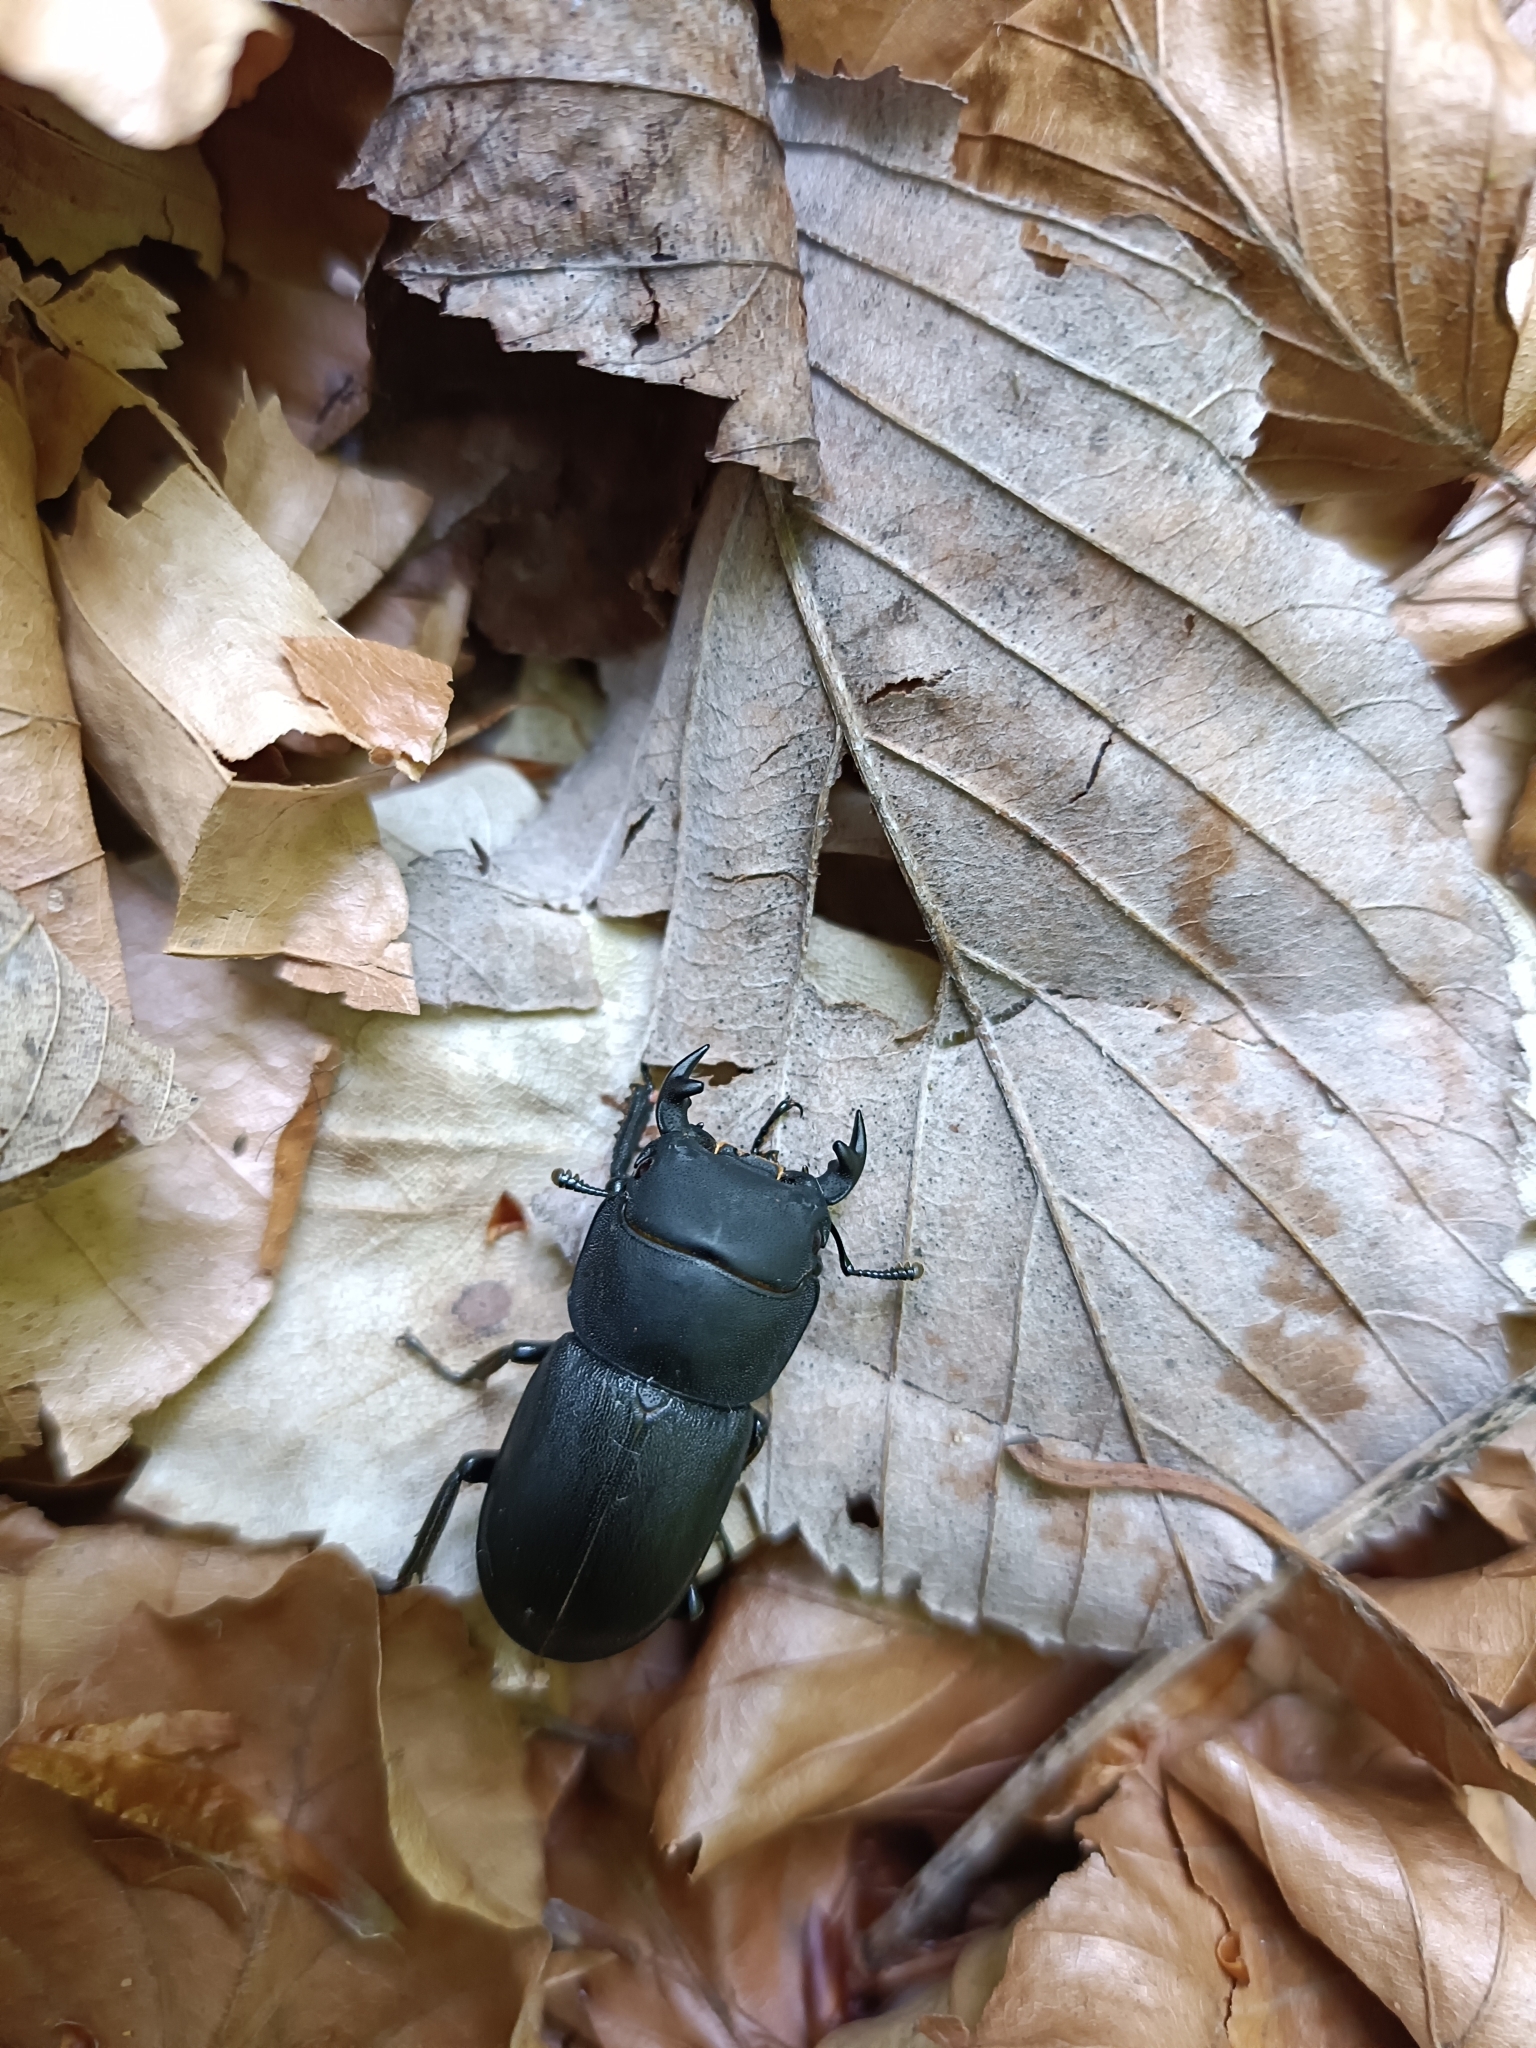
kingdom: Animalia
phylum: Arthropoda
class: Insecta
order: Coleoptera
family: Lucanidae
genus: Dorcus
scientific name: Dorcus parallelipipedus
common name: Lesser stag beetle
